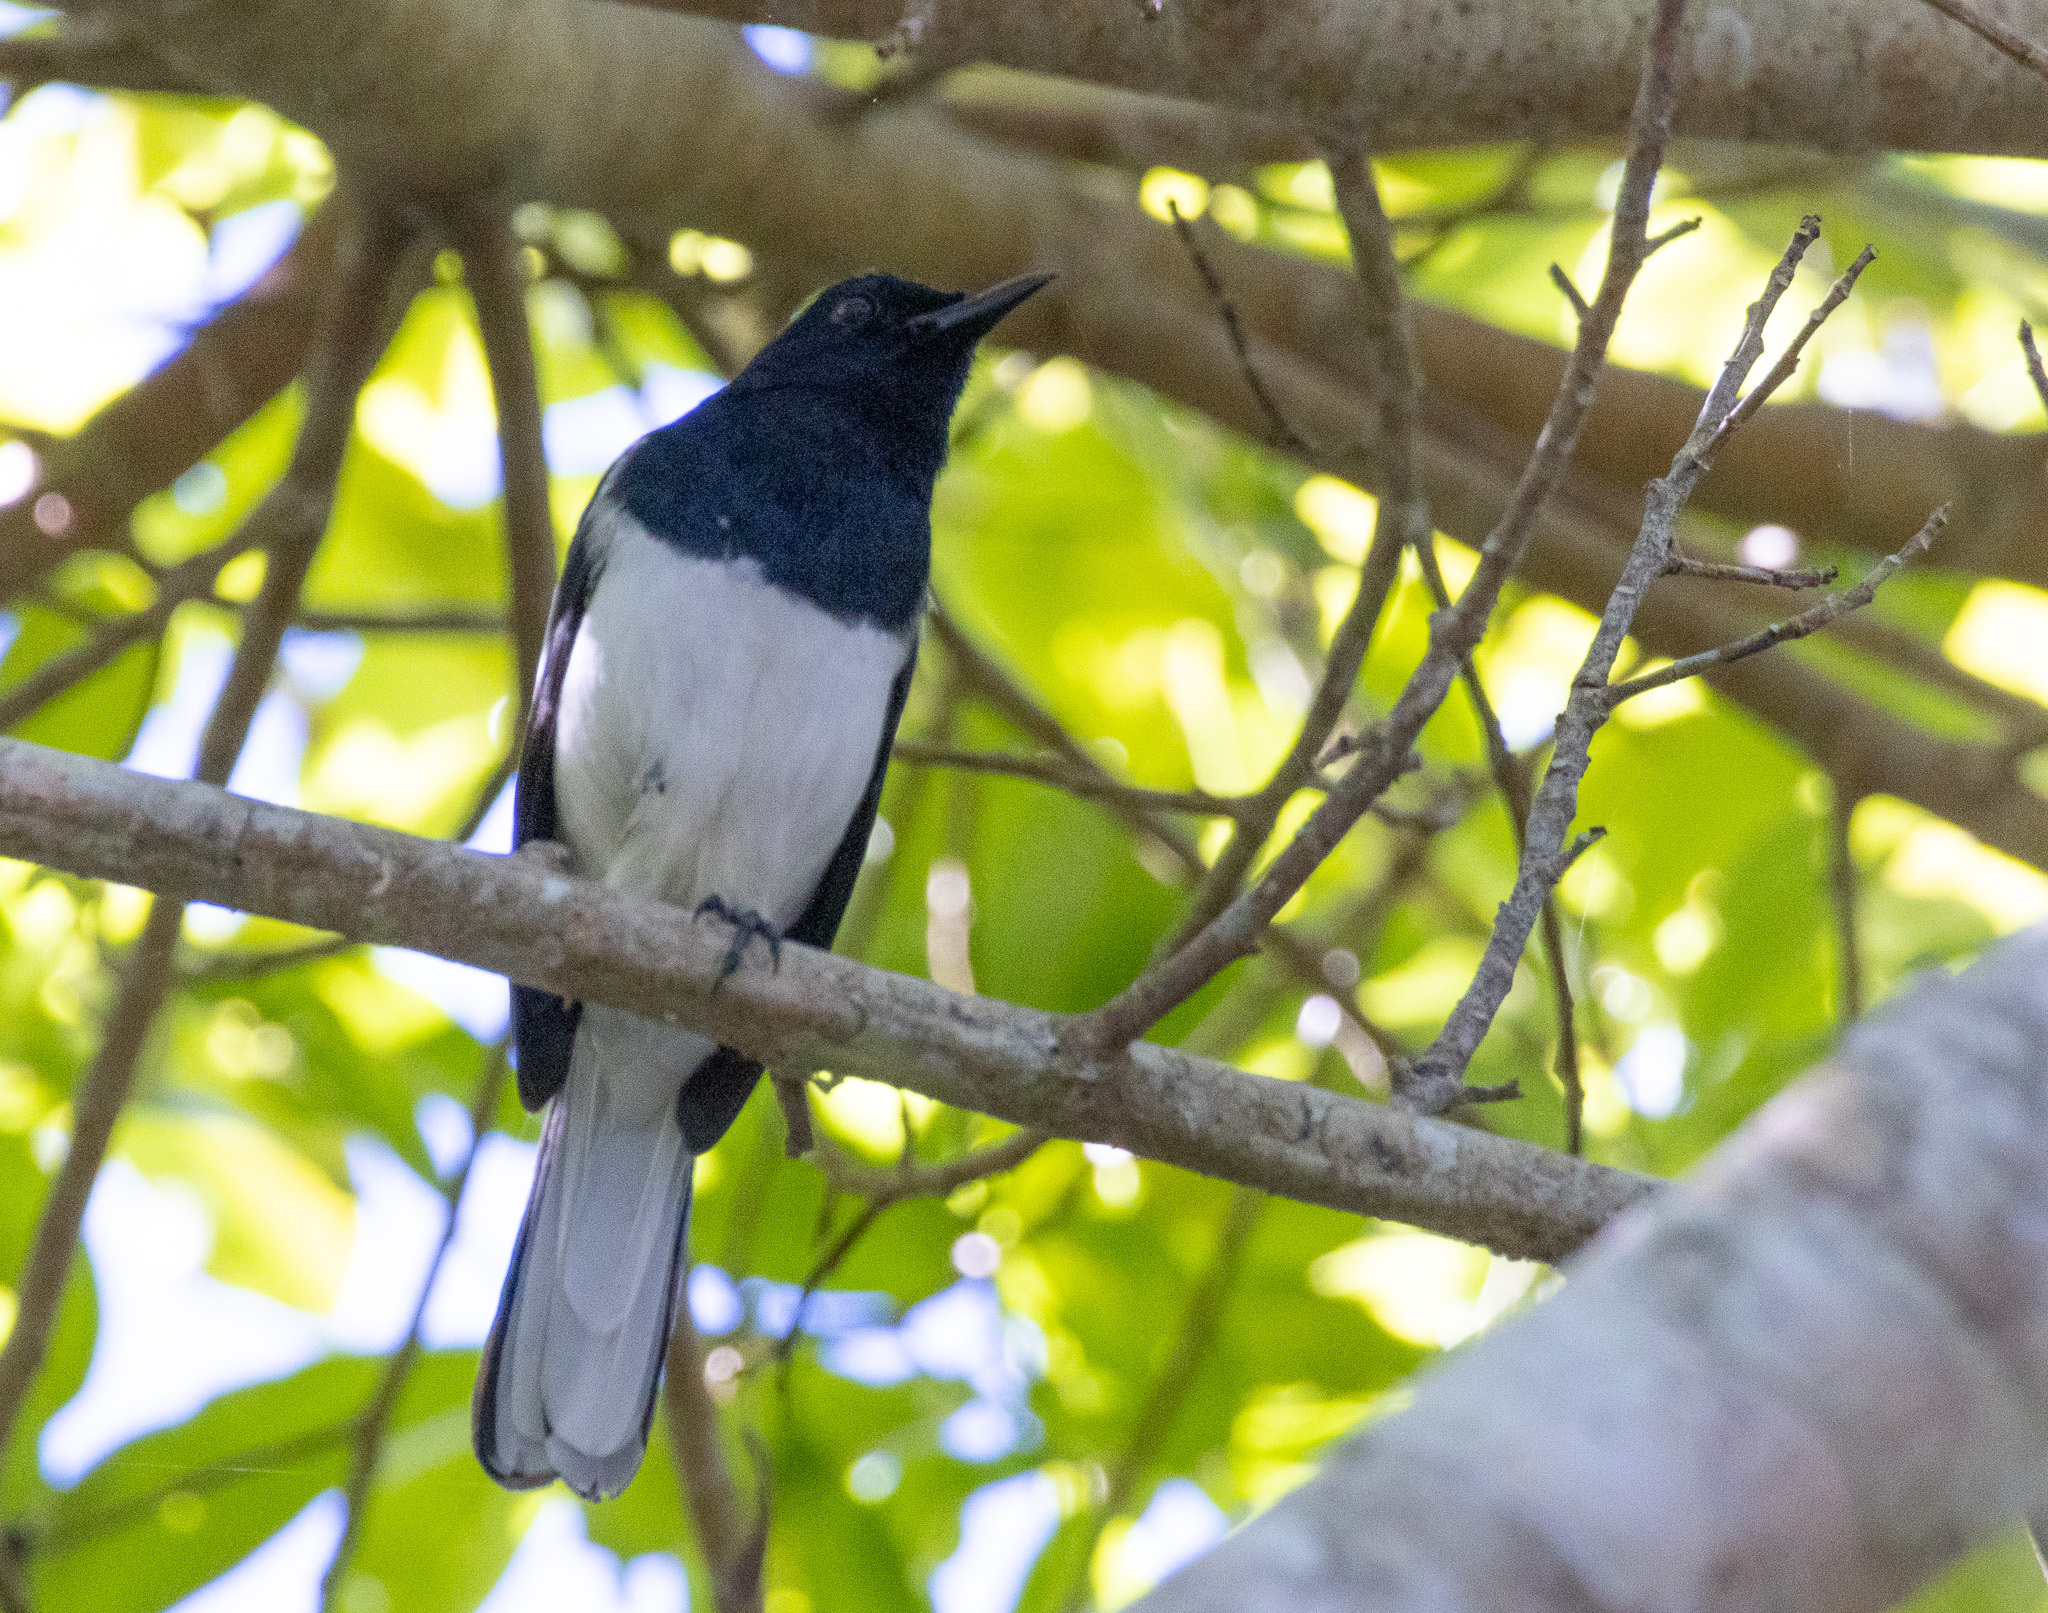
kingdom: Animalia
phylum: Chordata
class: Aves
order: Passeriformes
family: Muscicapidae
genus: Copsychus
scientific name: Copsychus saularis
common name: Oriental magpie-robin
